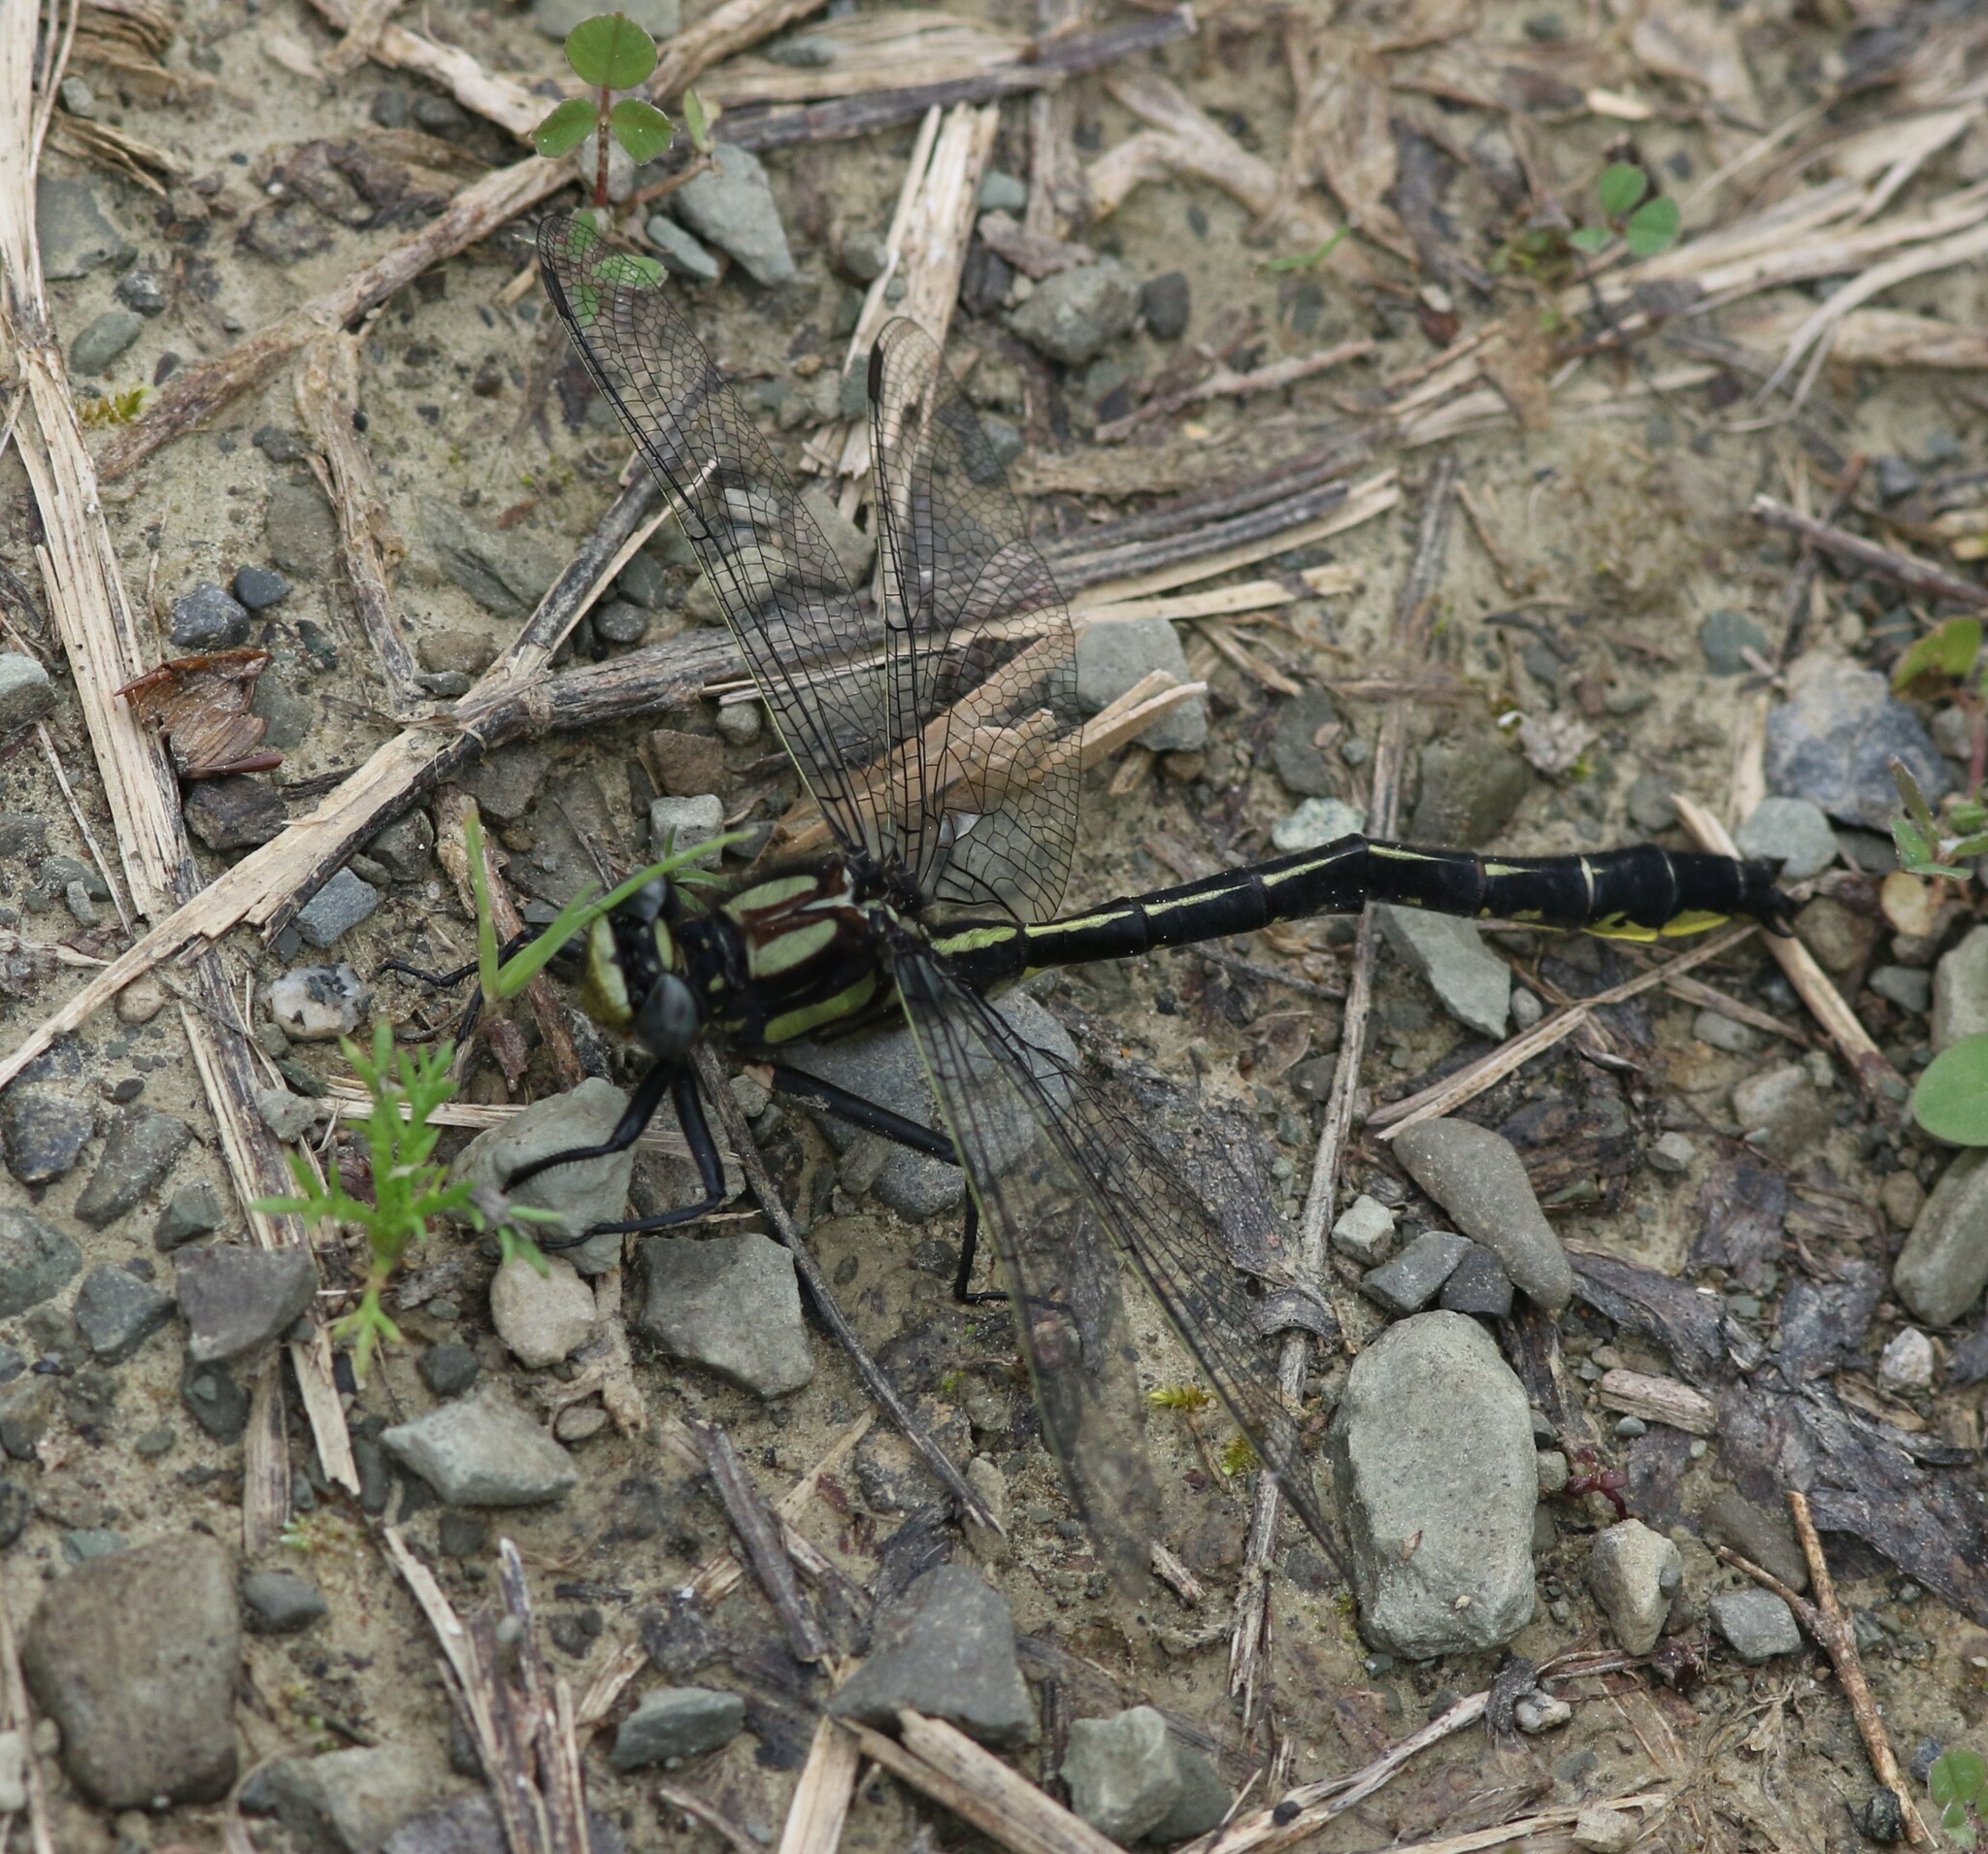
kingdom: Animalia
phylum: Arthropoda
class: Insecta
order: Odonata
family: Gomphidae
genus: Phanogomphus
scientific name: Phanogomphus borealis
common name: Beaverpond clubtail
